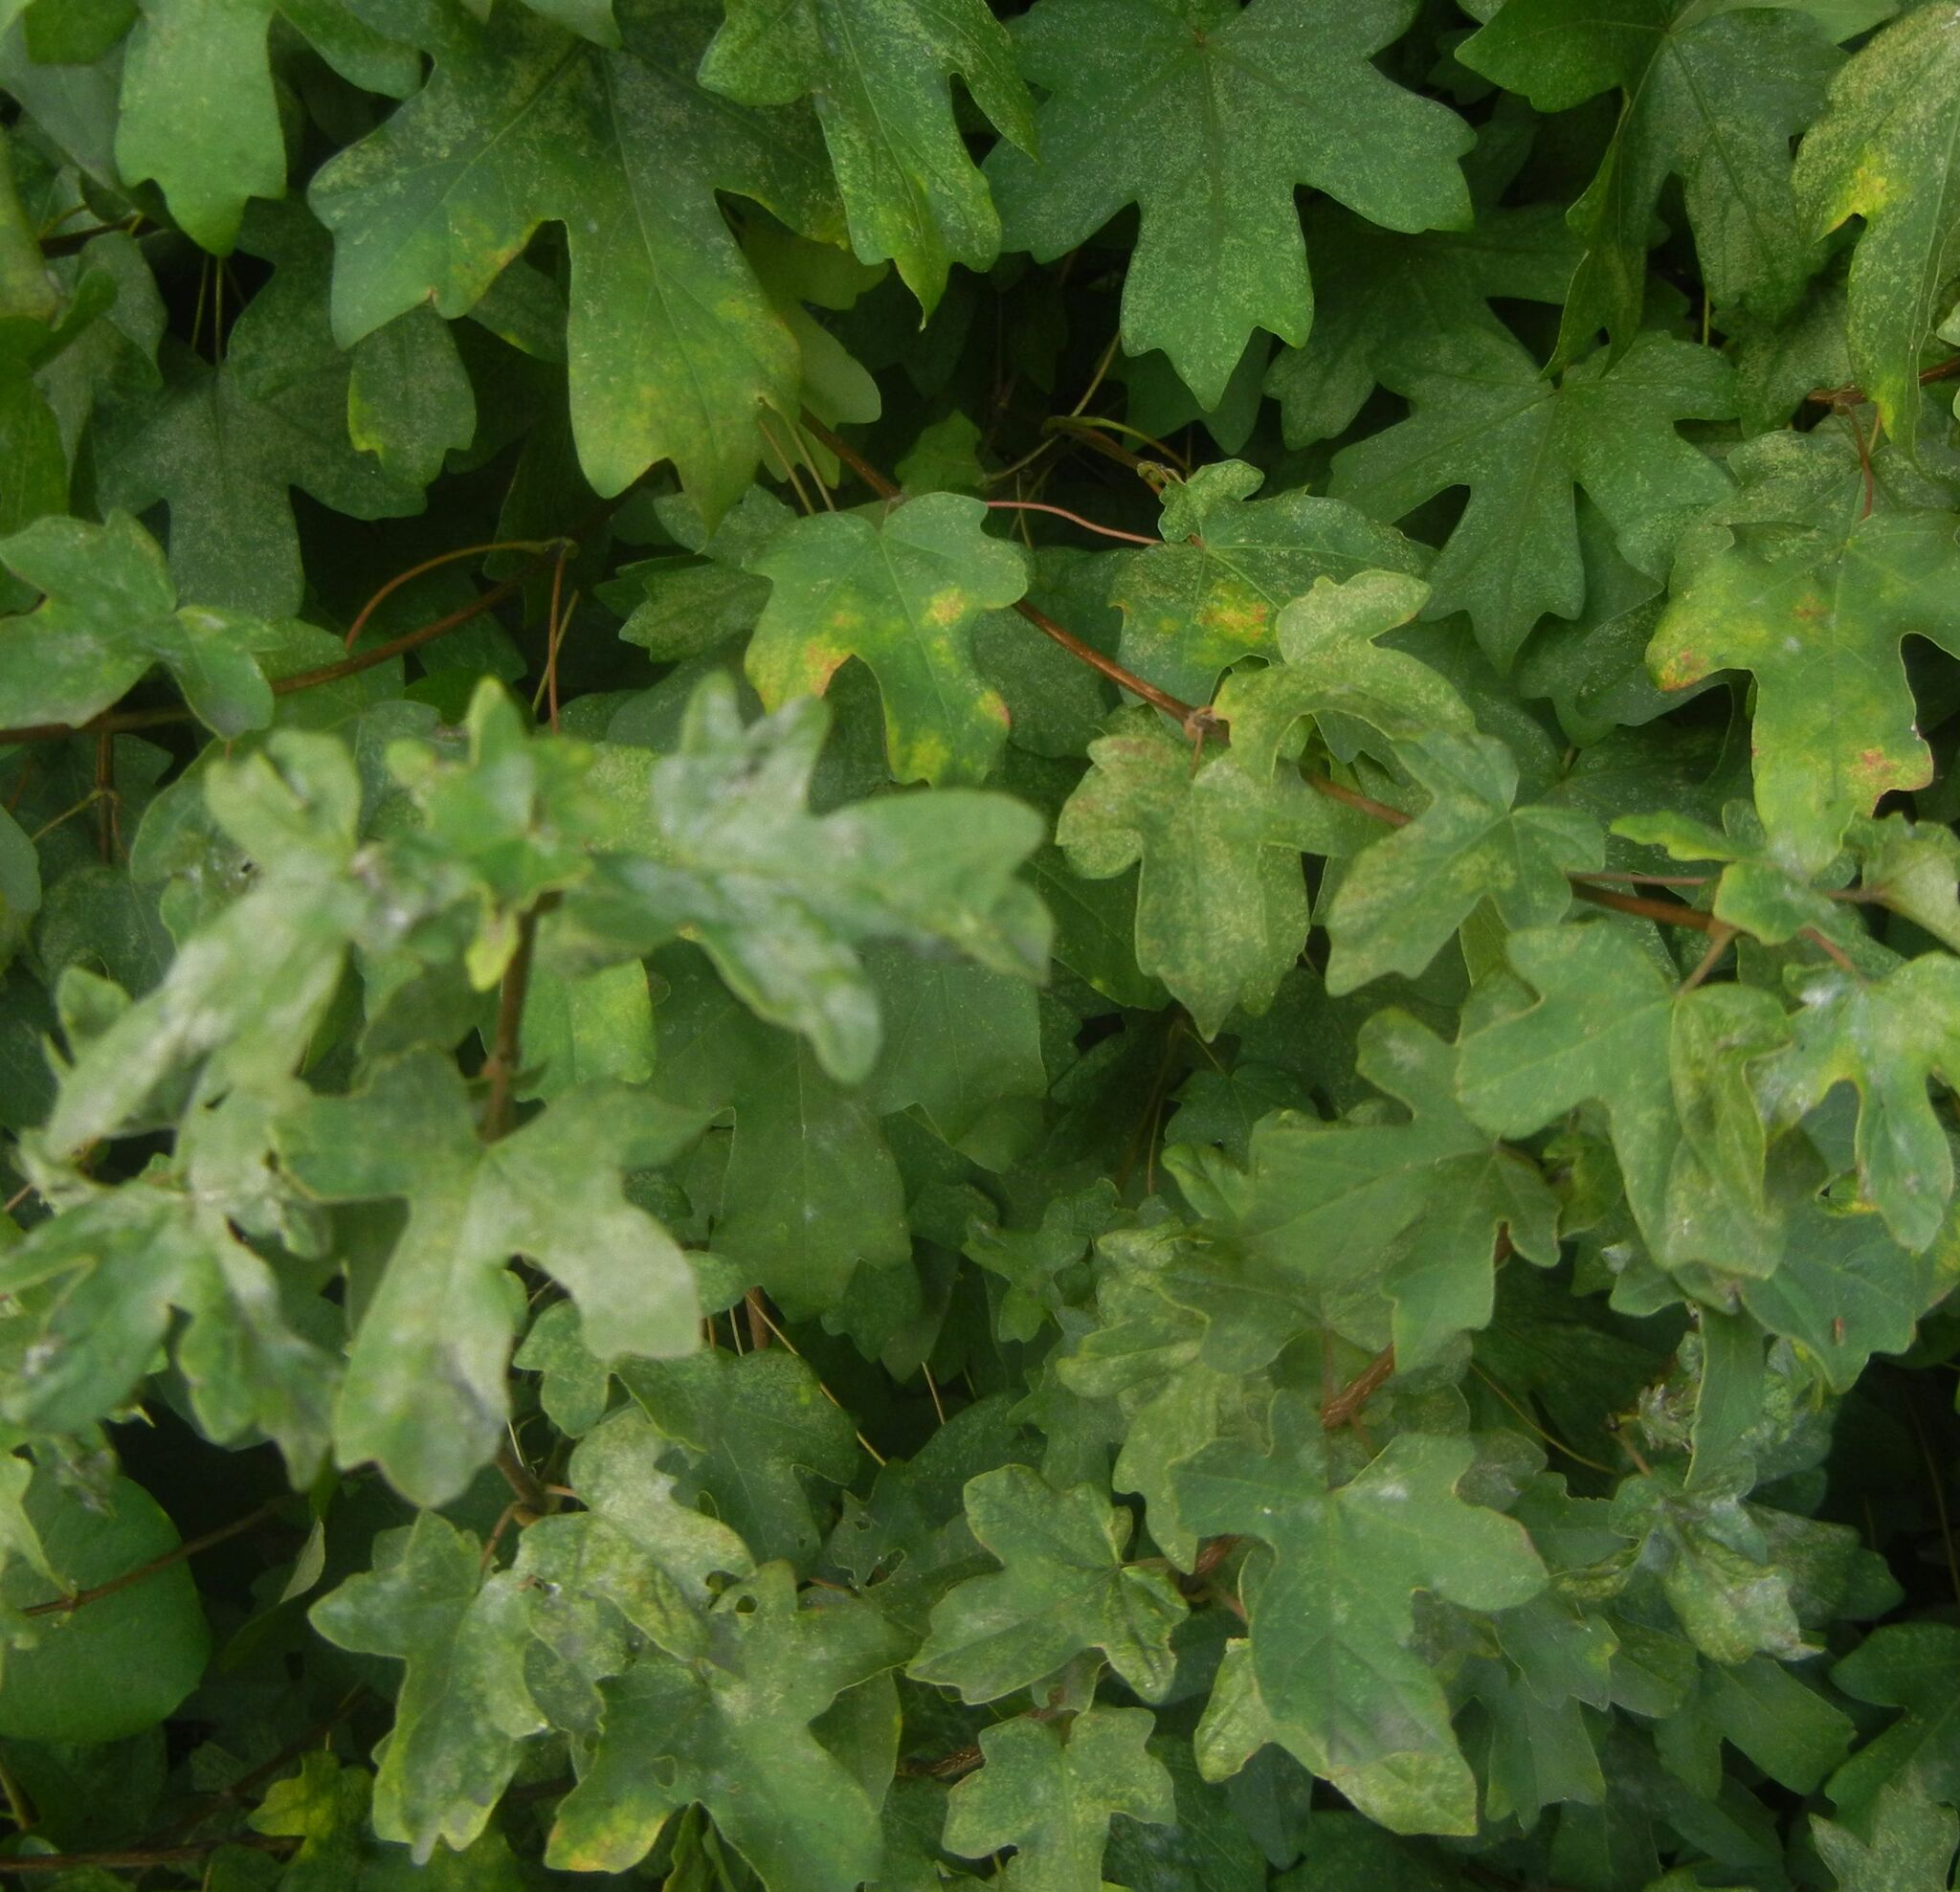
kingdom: Plantae
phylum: Tracheophyta
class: Magnoliopsida
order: Sapindales
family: Sapindaceae
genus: Acer
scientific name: Acer campestre
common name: Field maple
